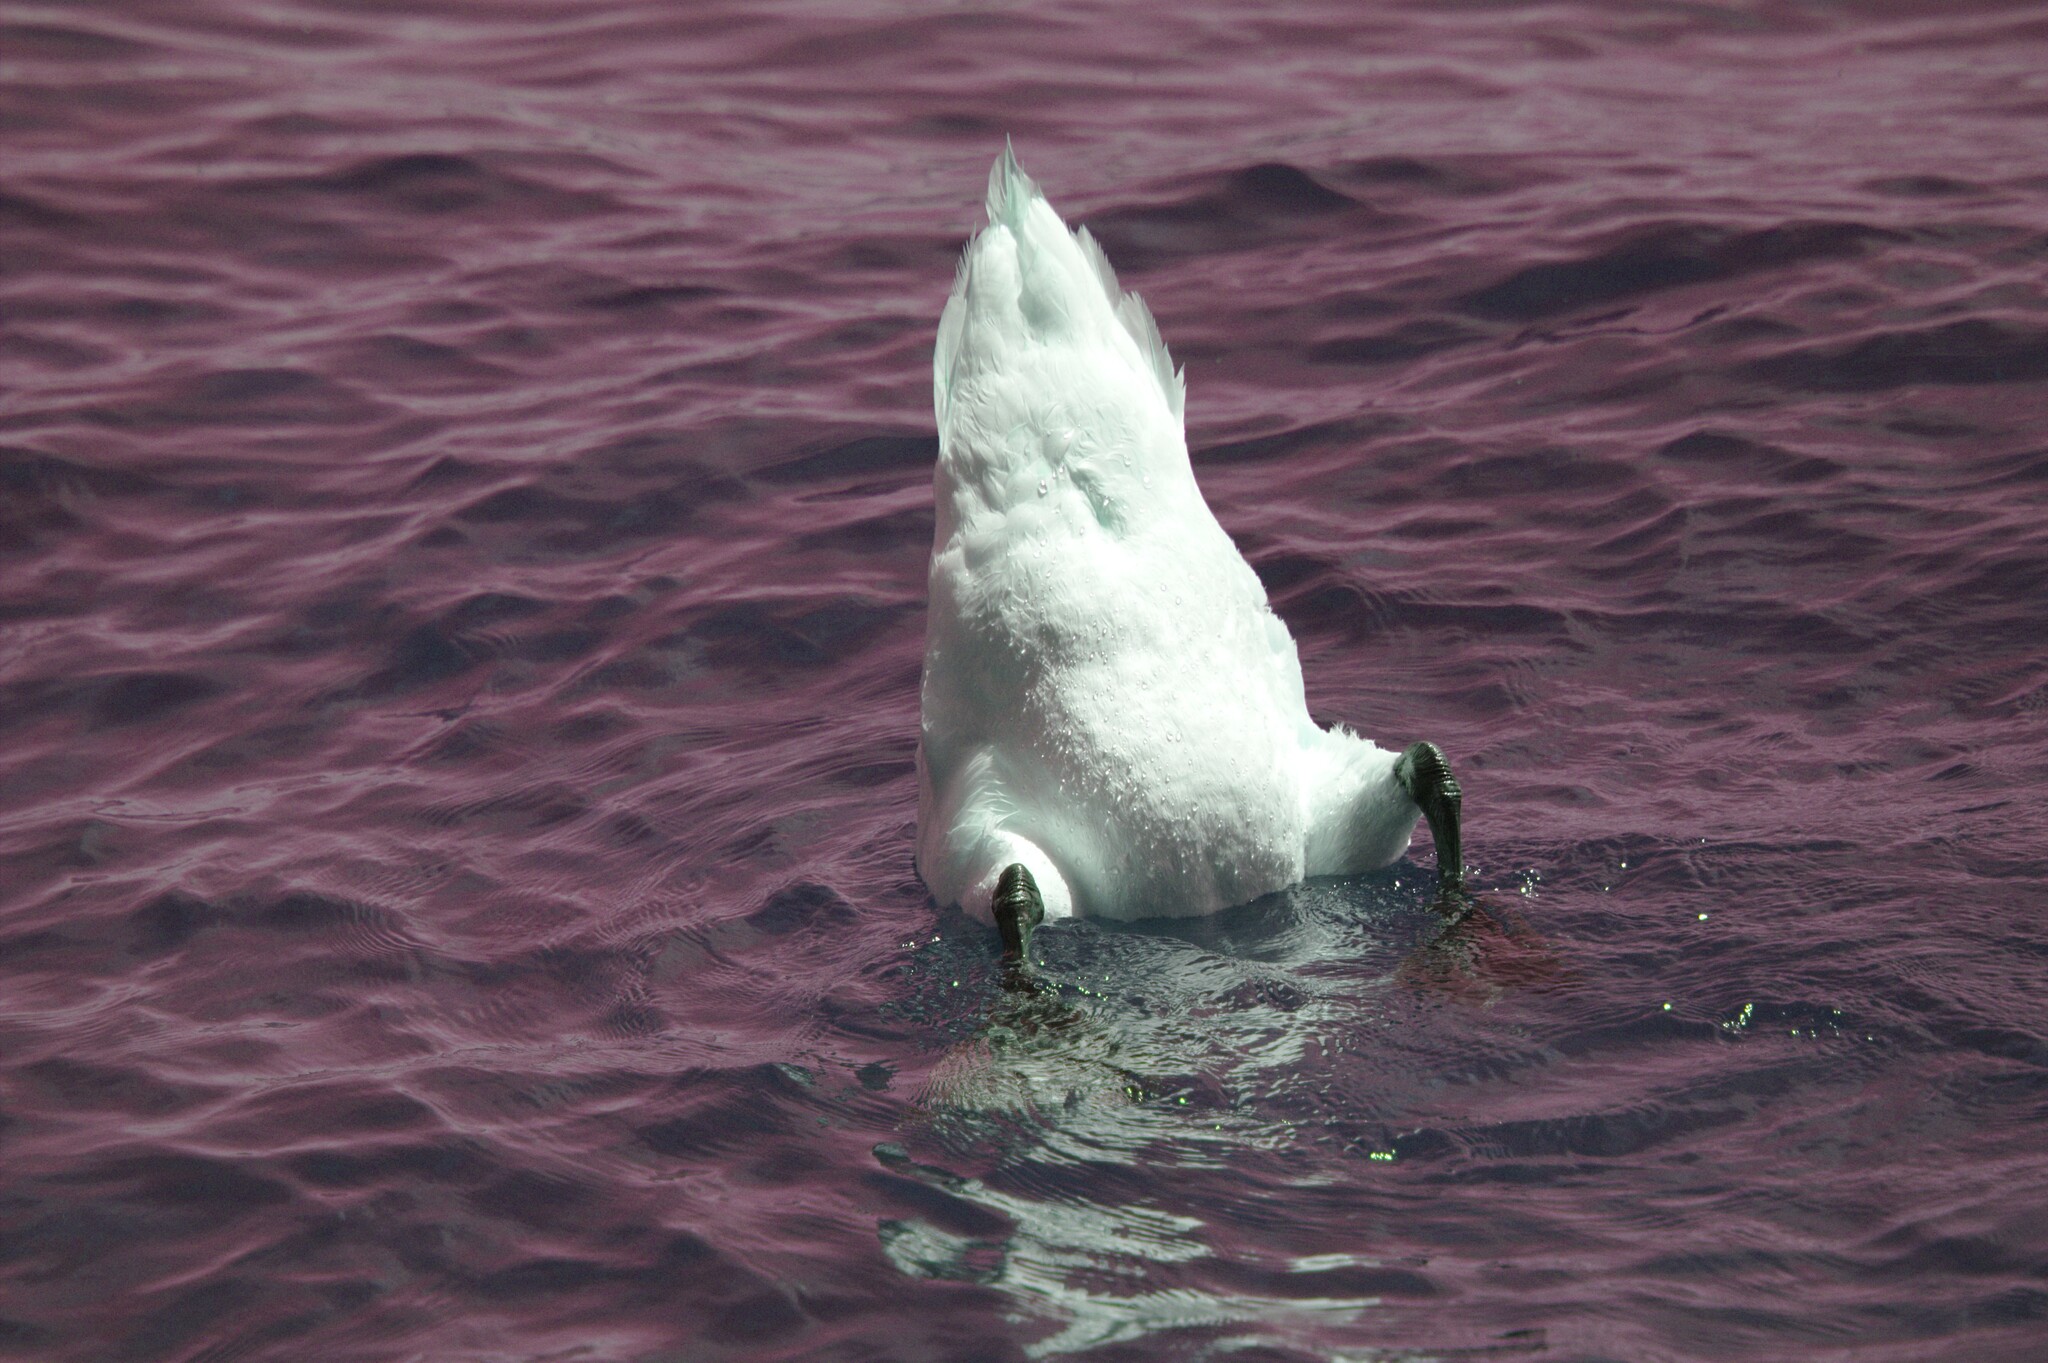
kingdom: Animalia
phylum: Chordata
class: Aves
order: Anseriformes
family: Anatidae
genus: Cygnus
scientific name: Cygnus olor
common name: Mute swan
